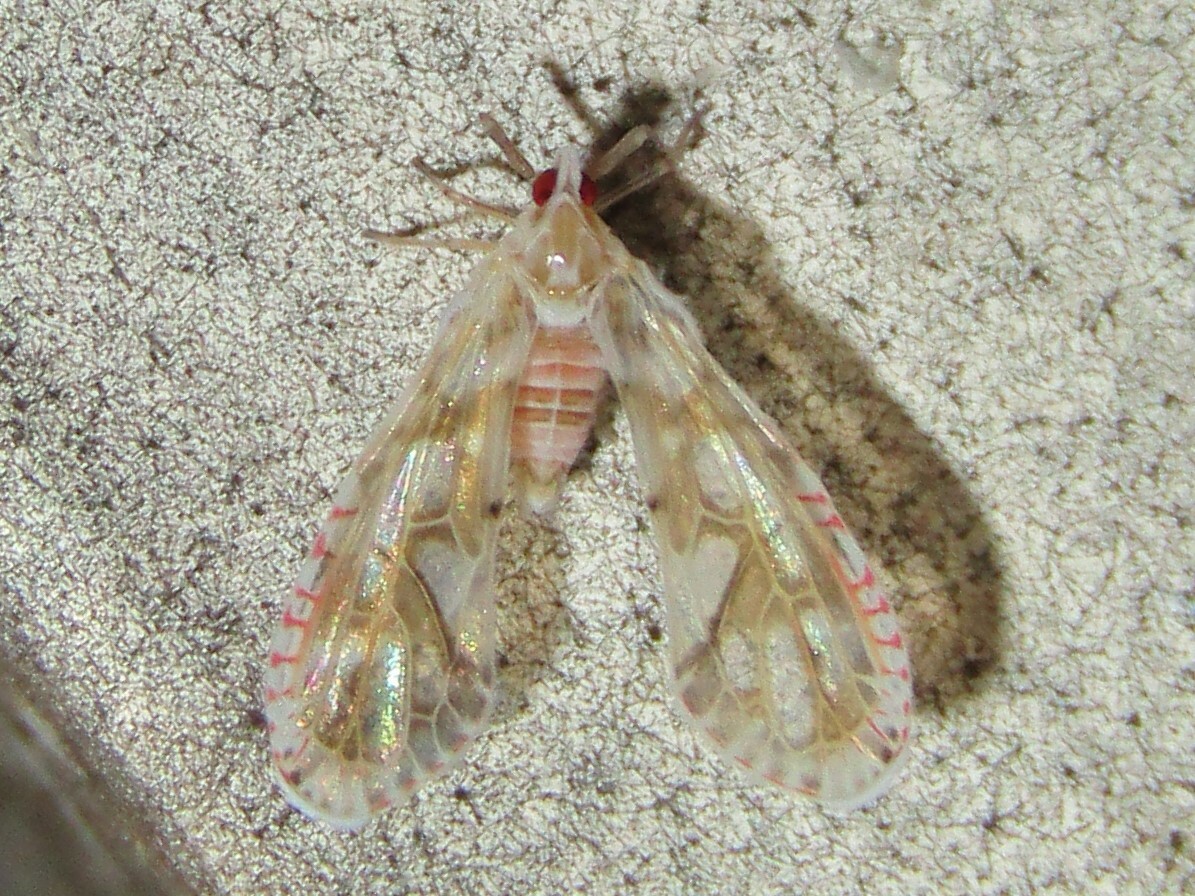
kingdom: Animalia
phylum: Arthropoda
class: Insecta
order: Hemiptera
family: Derbidae
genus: Anotia
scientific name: Anotia kirkaldyi
